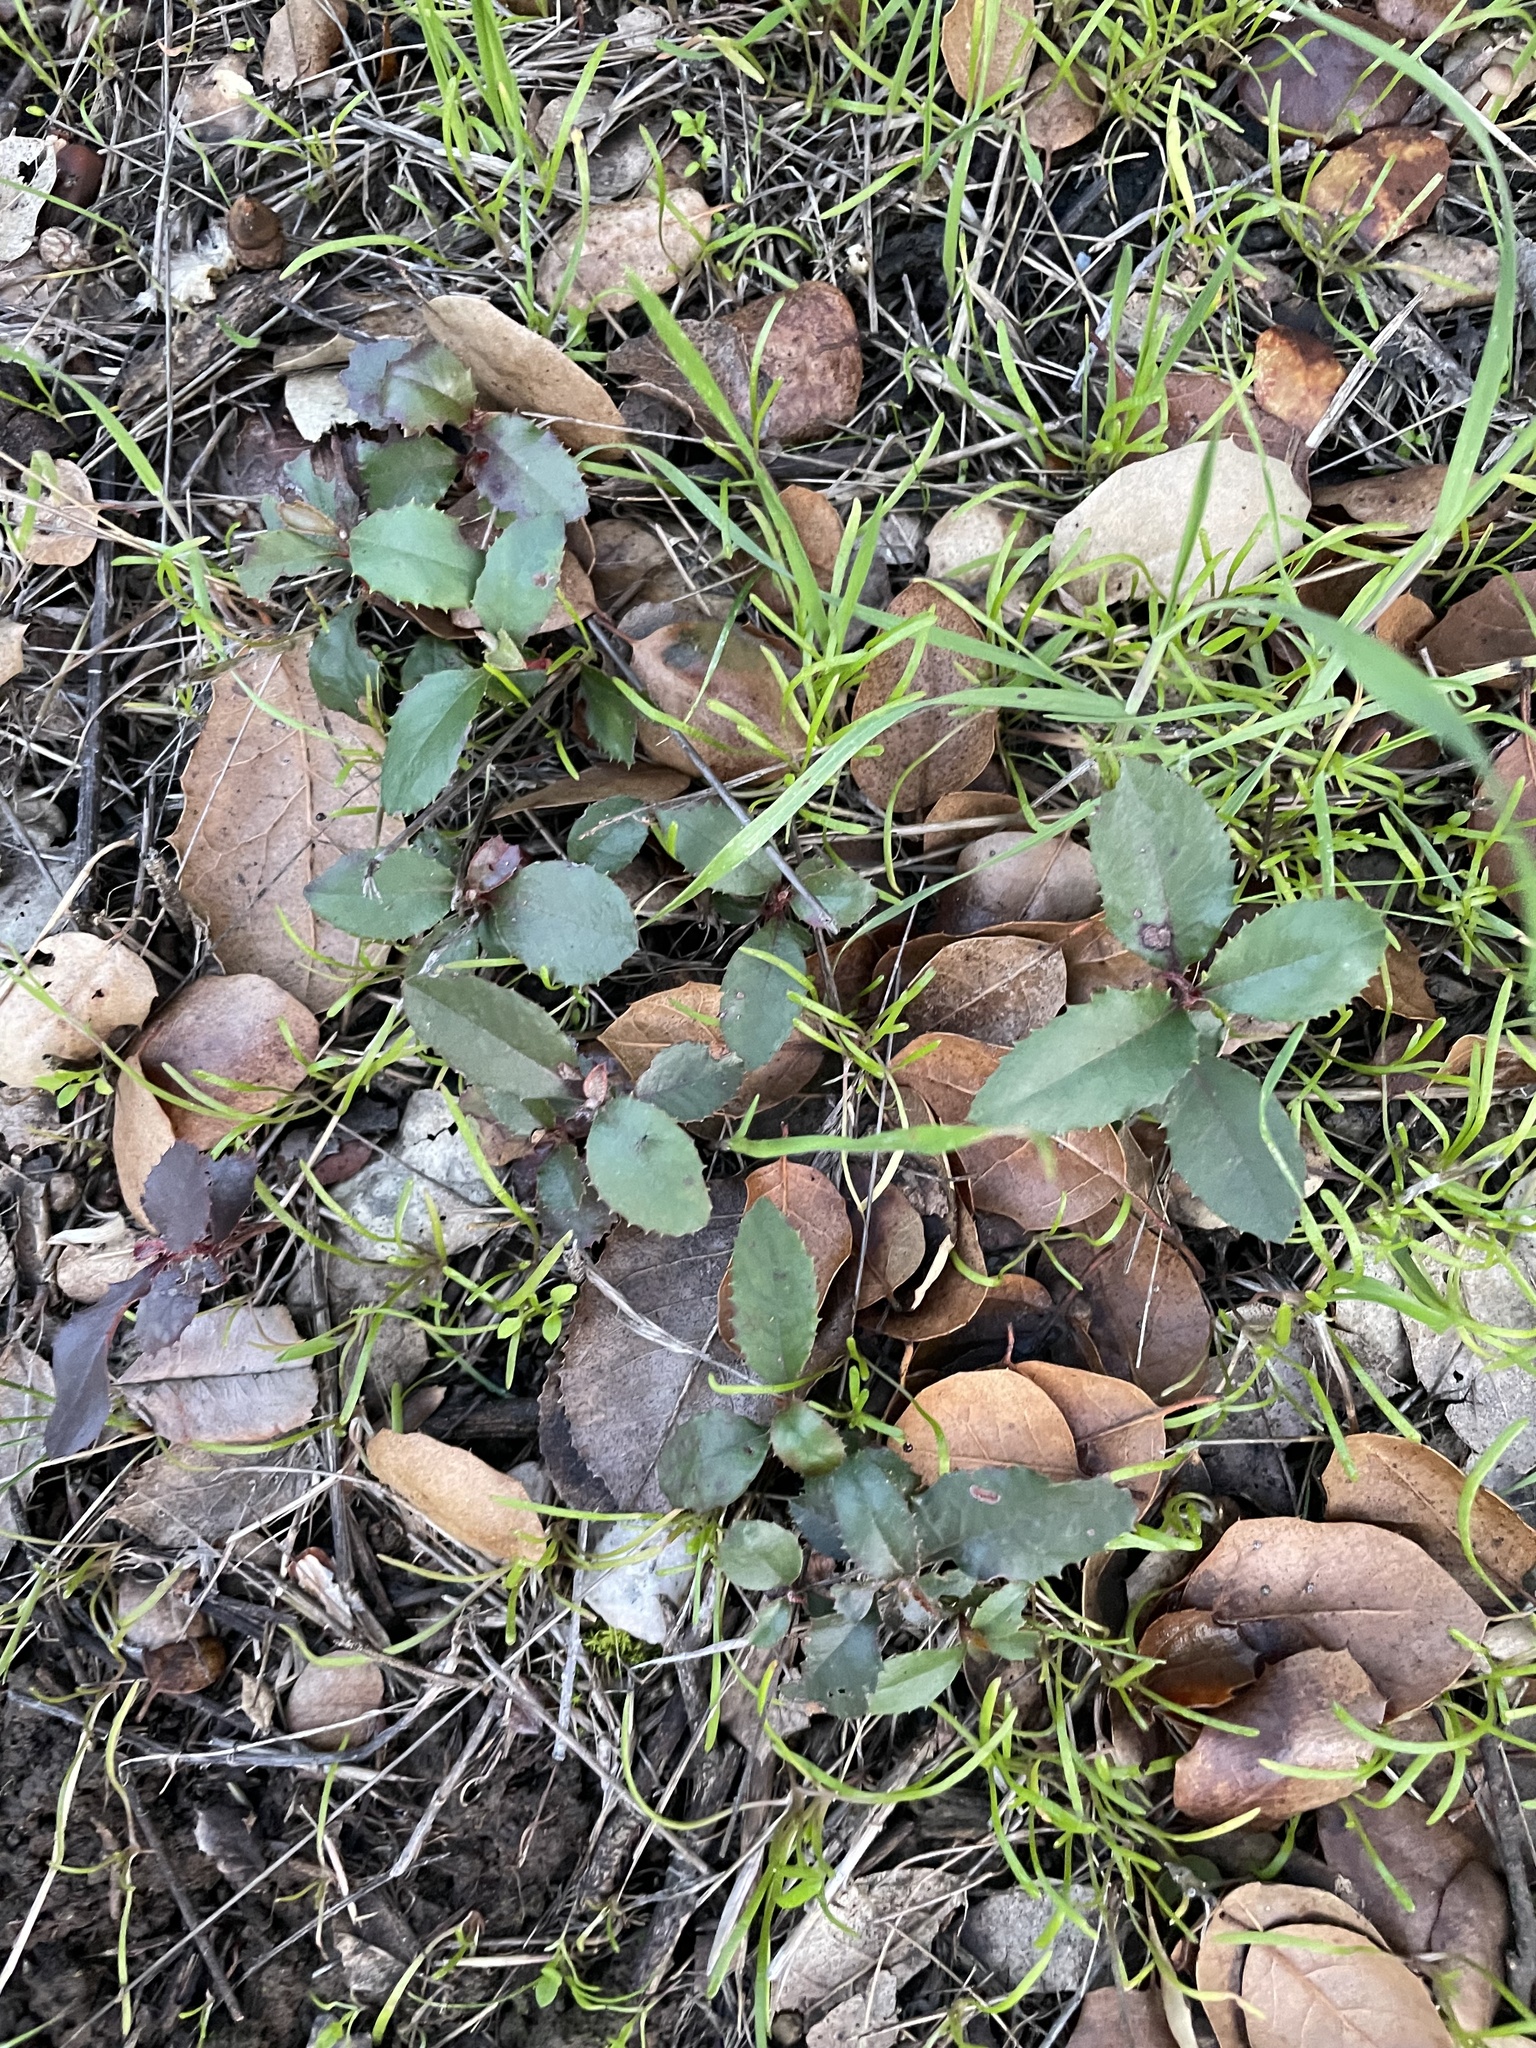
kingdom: Plantae
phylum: Tracheophyta
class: Magnoliopsida
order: Rosales
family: Rosaceae
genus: Heteromeles
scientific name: Heteromeles arbutifolia
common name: California-holly
